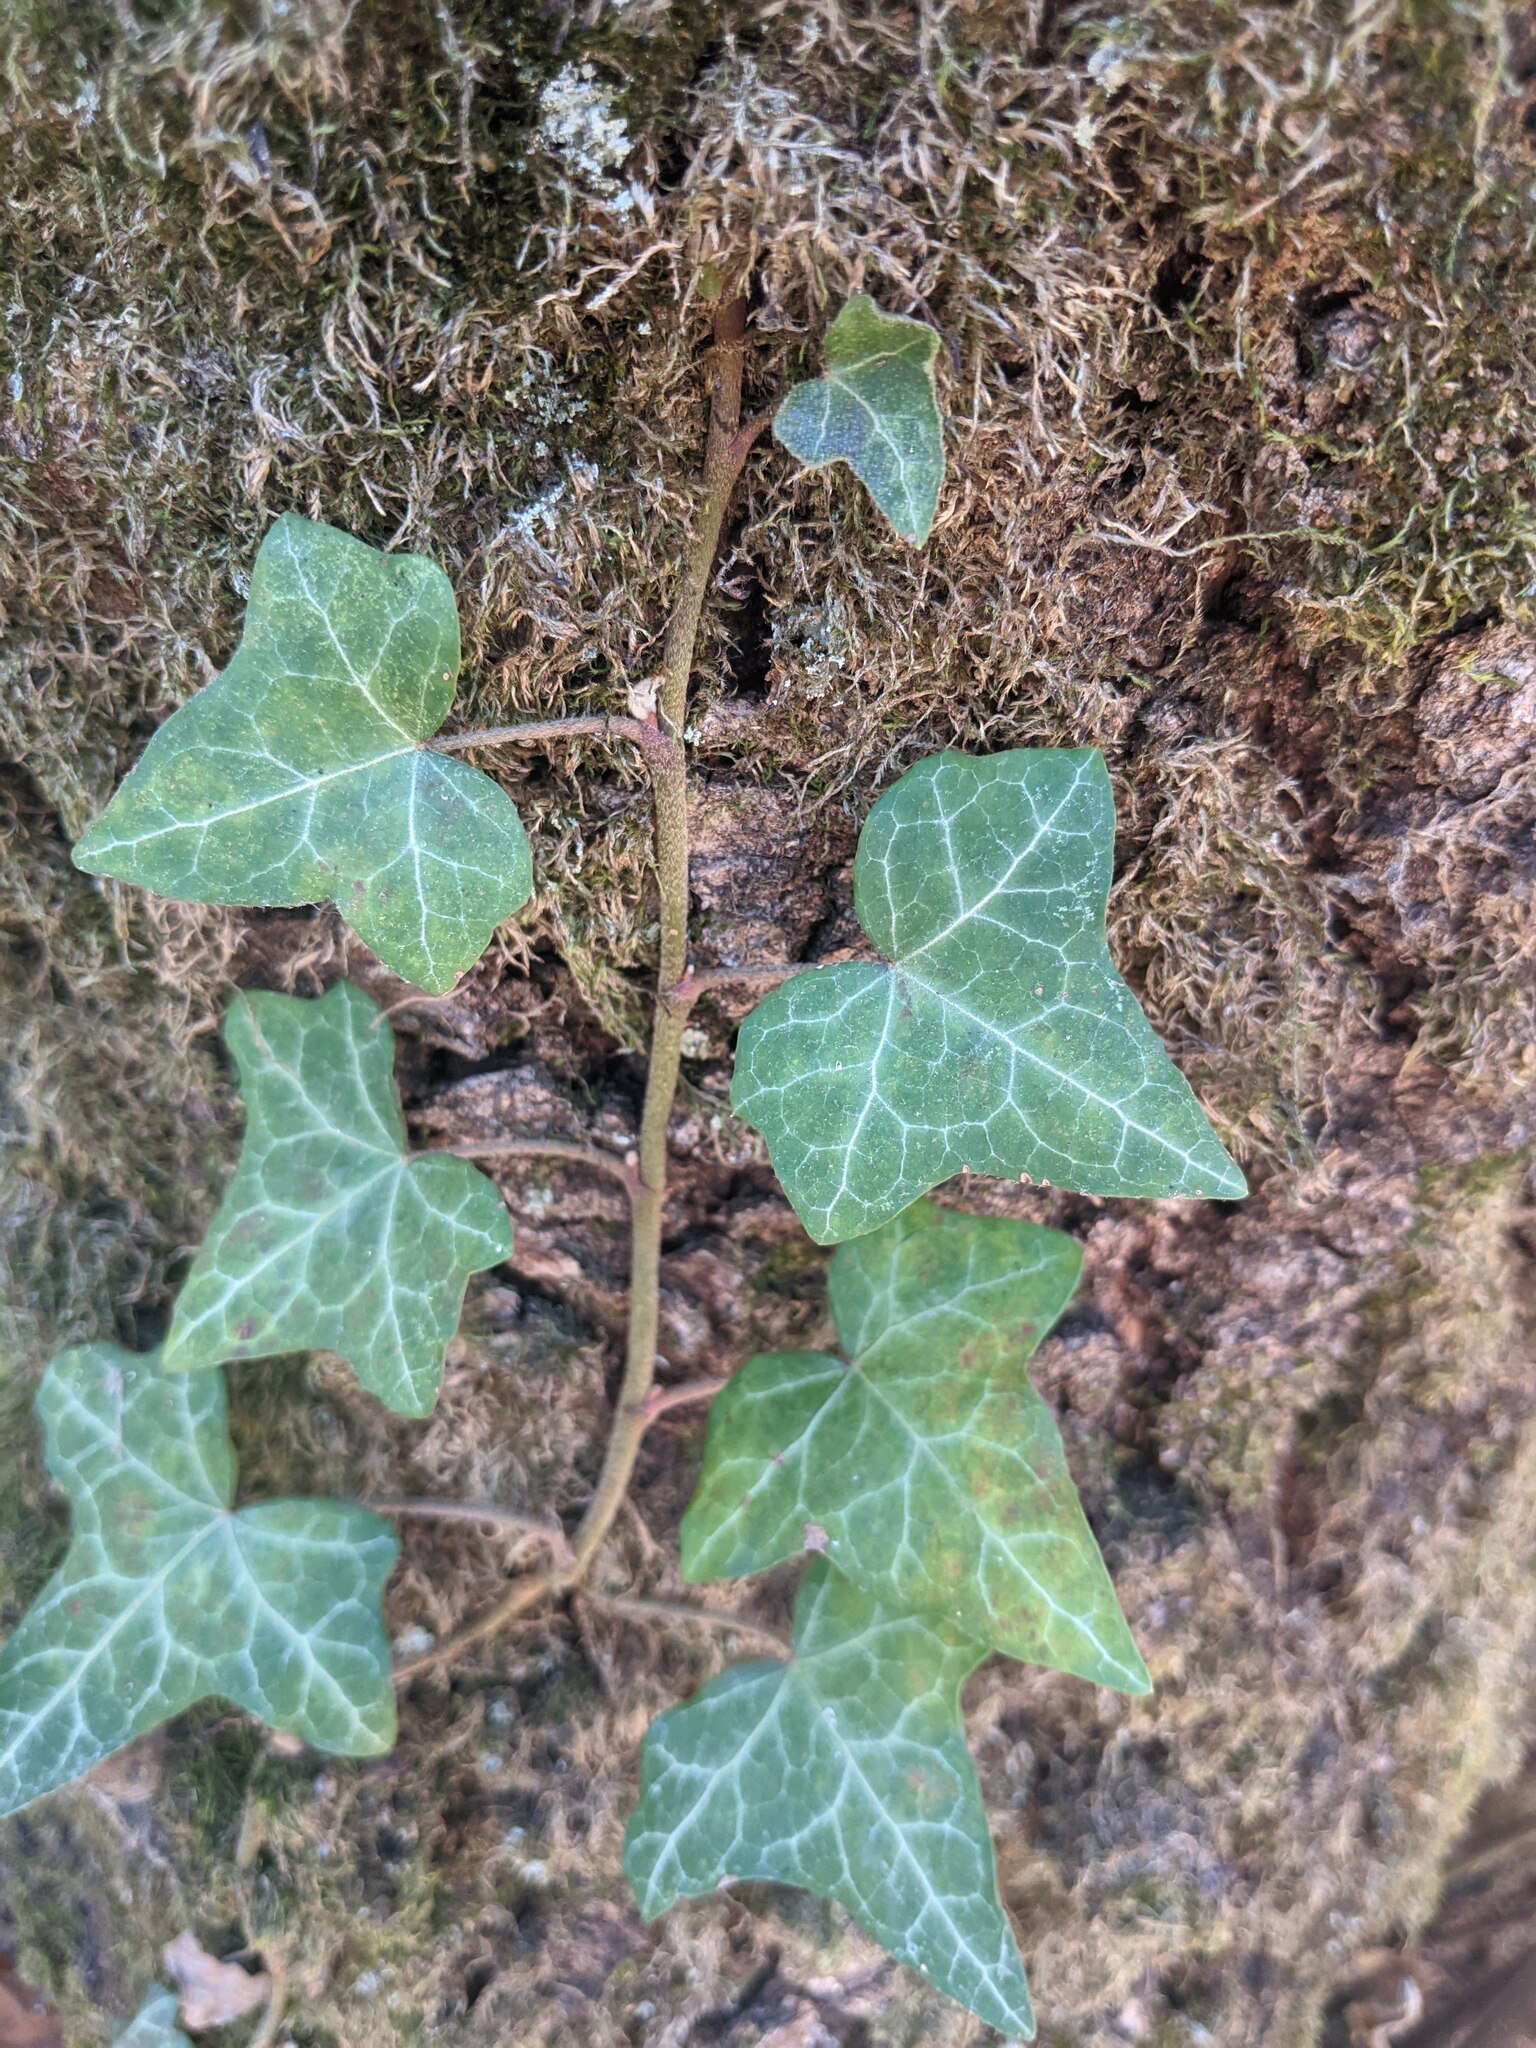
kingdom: Plantae
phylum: Tracheophyta
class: Magnoliopsida
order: Apiales
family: Araliaceae
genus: Hedera
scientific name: Hedera helix
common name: Ivy
